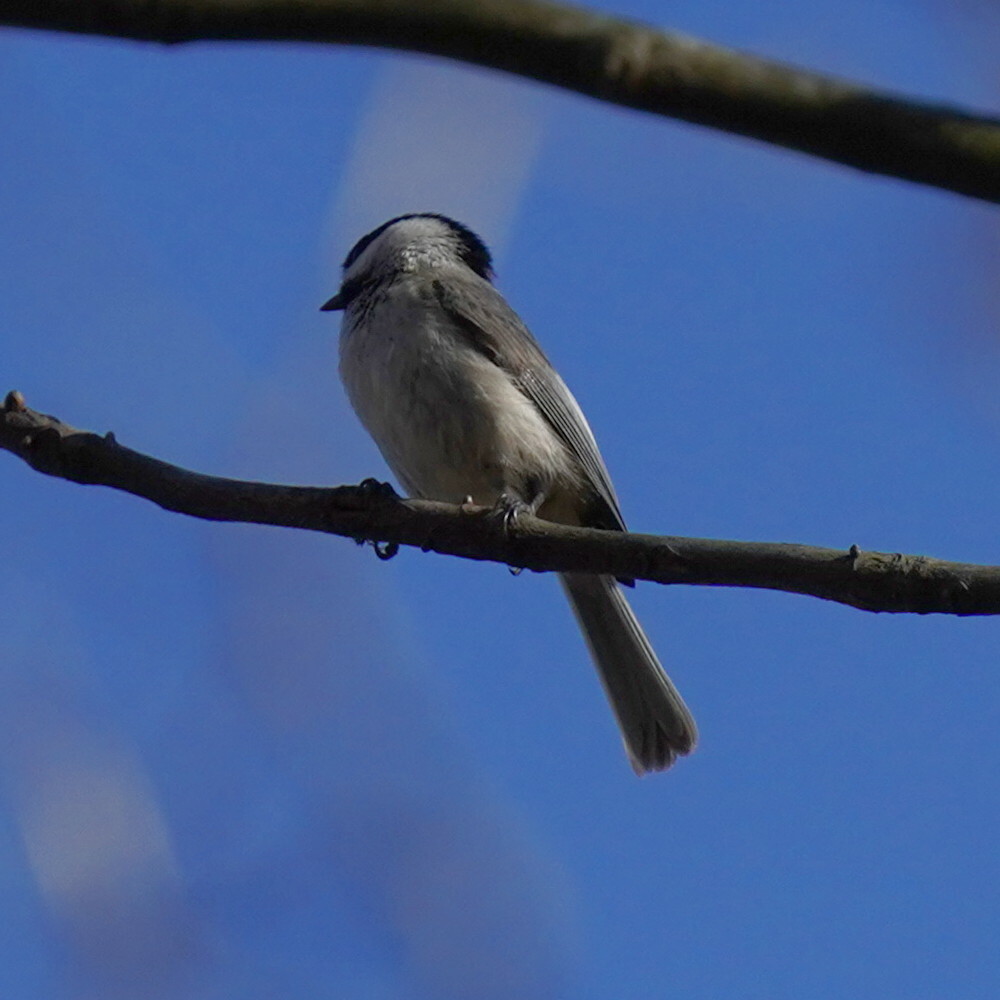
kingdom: Animalia
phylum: Chordata
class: Aves
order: Passeriformes
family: Paridae
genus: Poecile
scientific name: Poecile carolinensis
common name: Carolina chickadee
